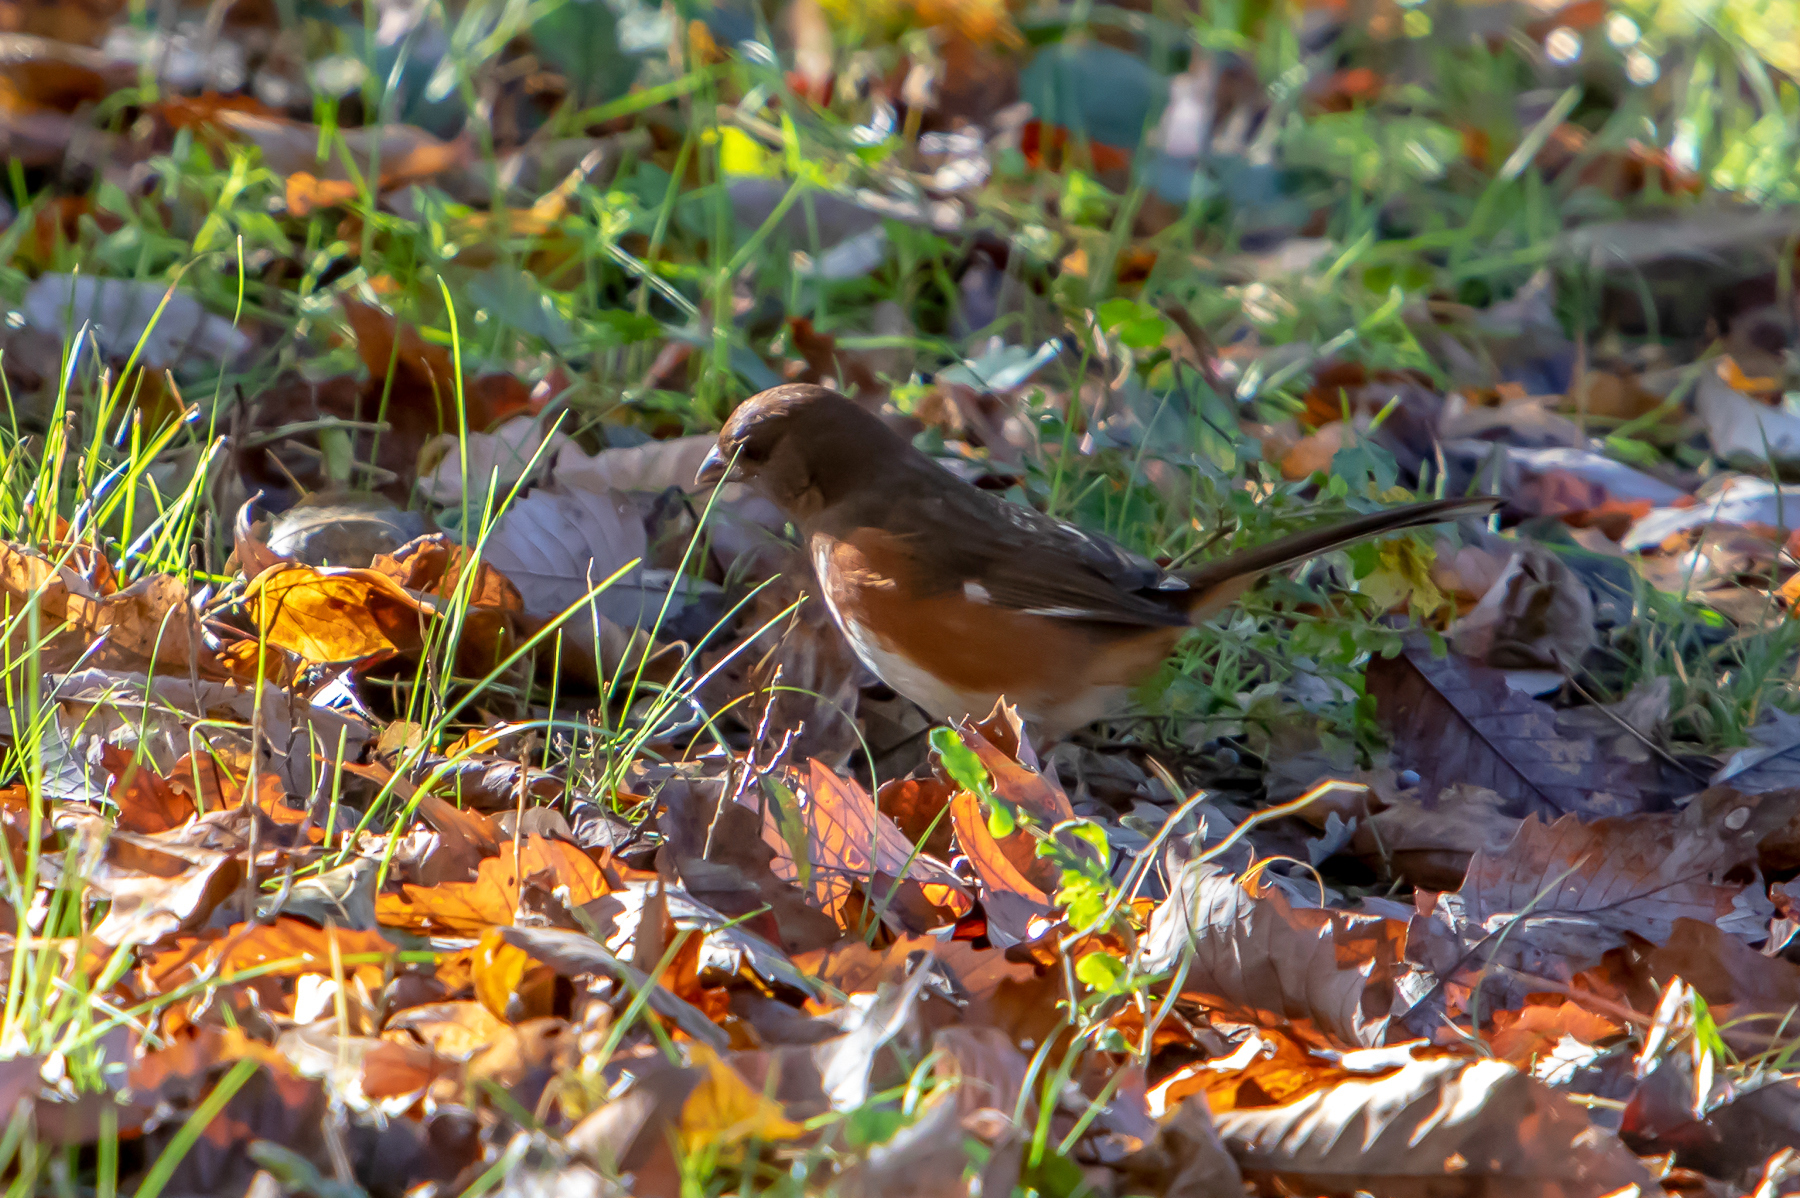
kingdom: Animalia
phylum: Chordata
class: Aves
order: Passeriformes
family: Passerellidae
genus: Pipilo
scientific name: Pipilo erythrophthalmus
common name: Eastern towhee
